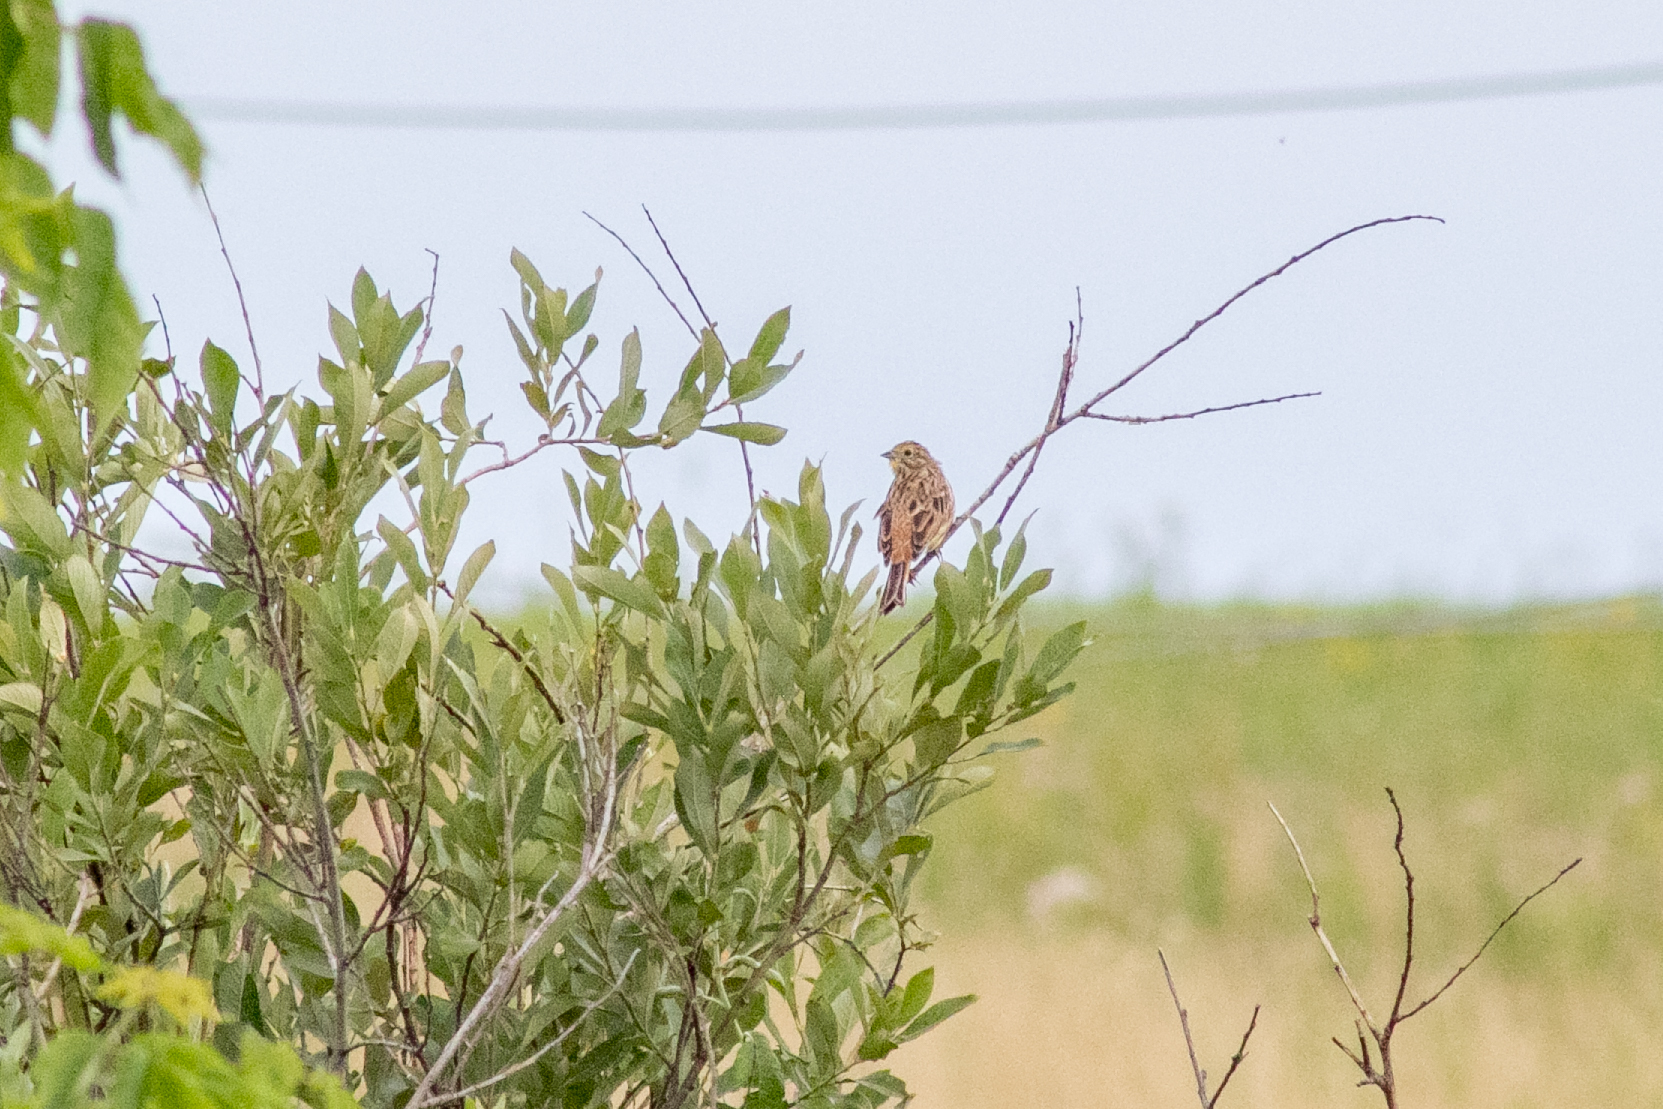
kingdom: Animalia
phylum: Chordata
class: Aves
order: Passeriformes
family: Emberizidae
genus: Emberiza
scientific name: Emberiza citrinella
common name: Yellowhammer
